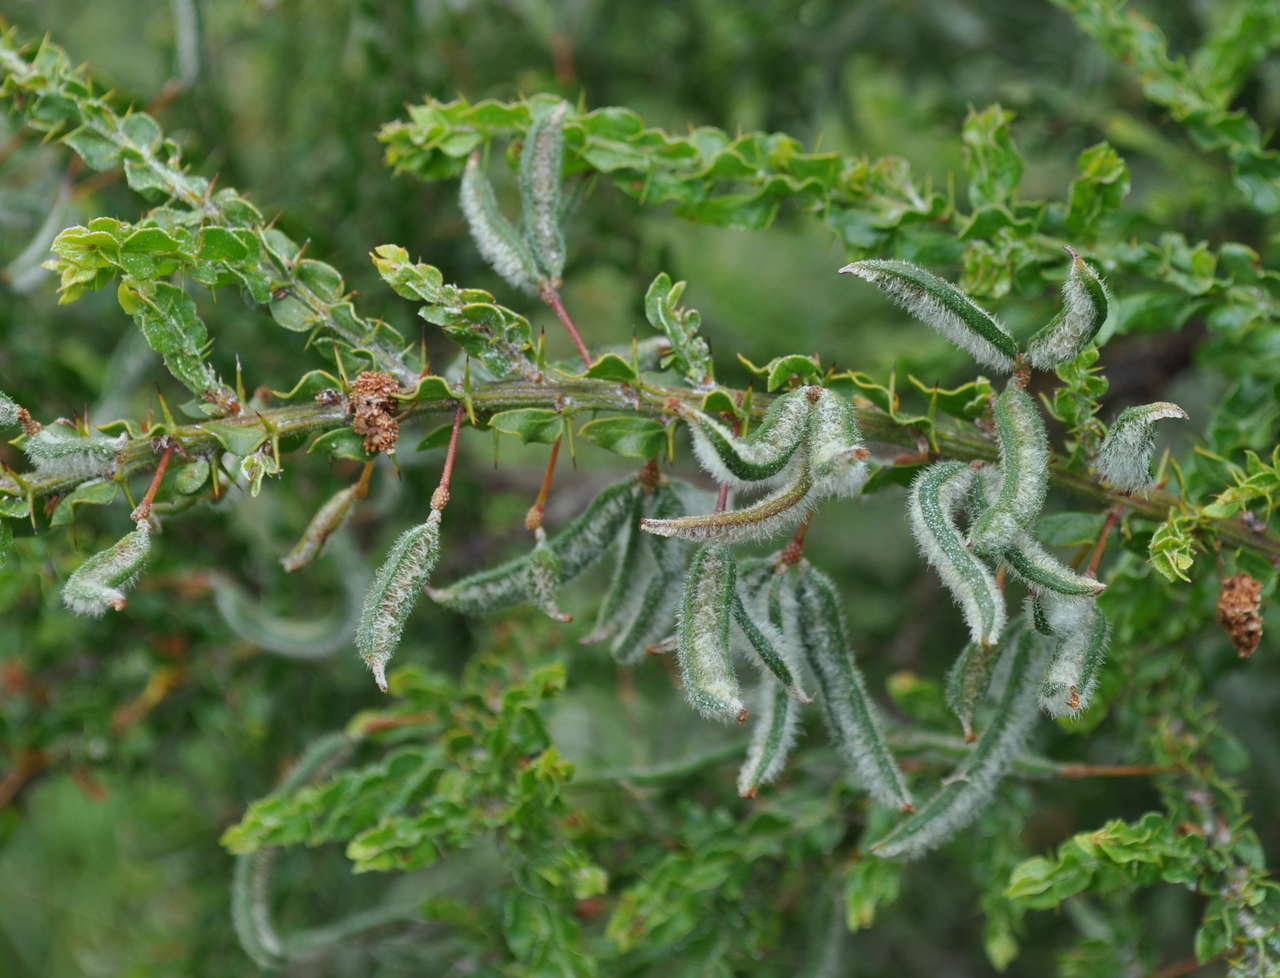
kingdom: Plantae
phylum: Tracheophyta
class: Magnoliopsida
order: Fabales
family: Fabaceae
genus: Acacia
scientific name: Acacia paradoxa
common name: Paradox acacia
